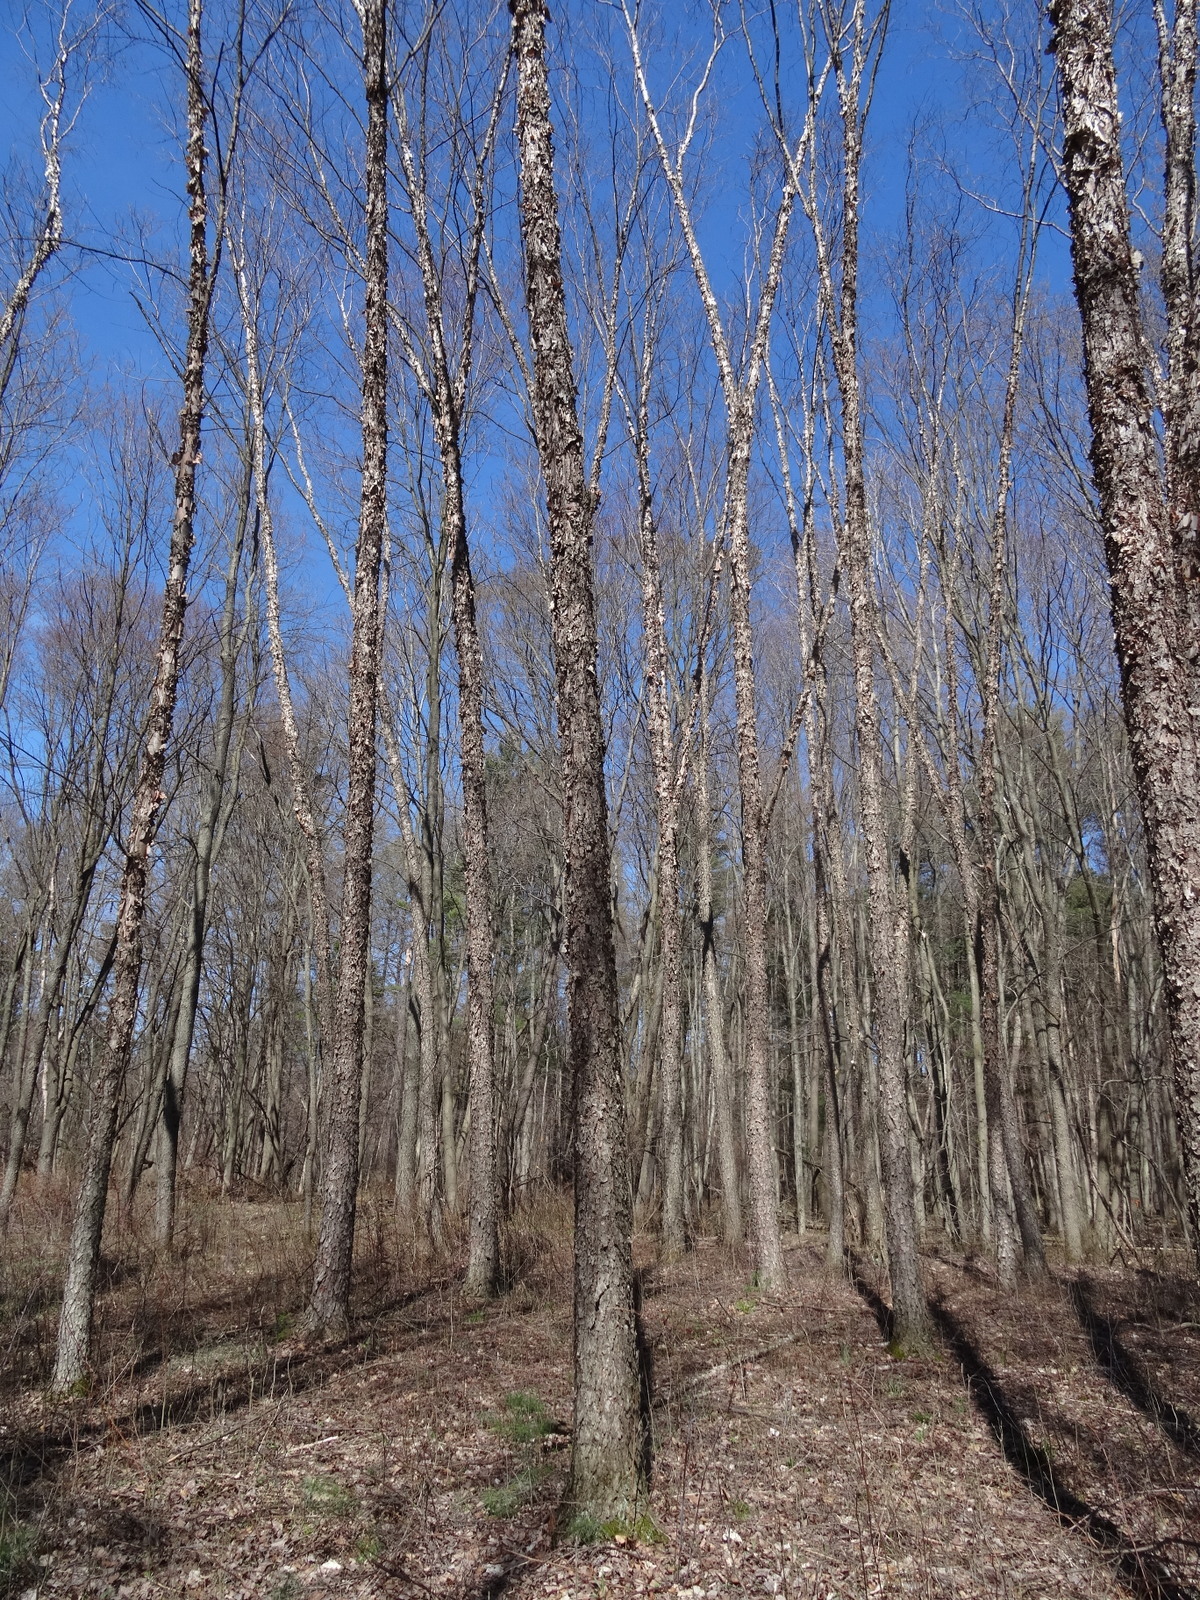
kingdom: Plantae
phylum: Tracheophyta
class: Magnoliopsida
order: Rosales
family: Rosaceae
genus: Prunus
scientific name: Prunus serotina
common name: Black cherry
